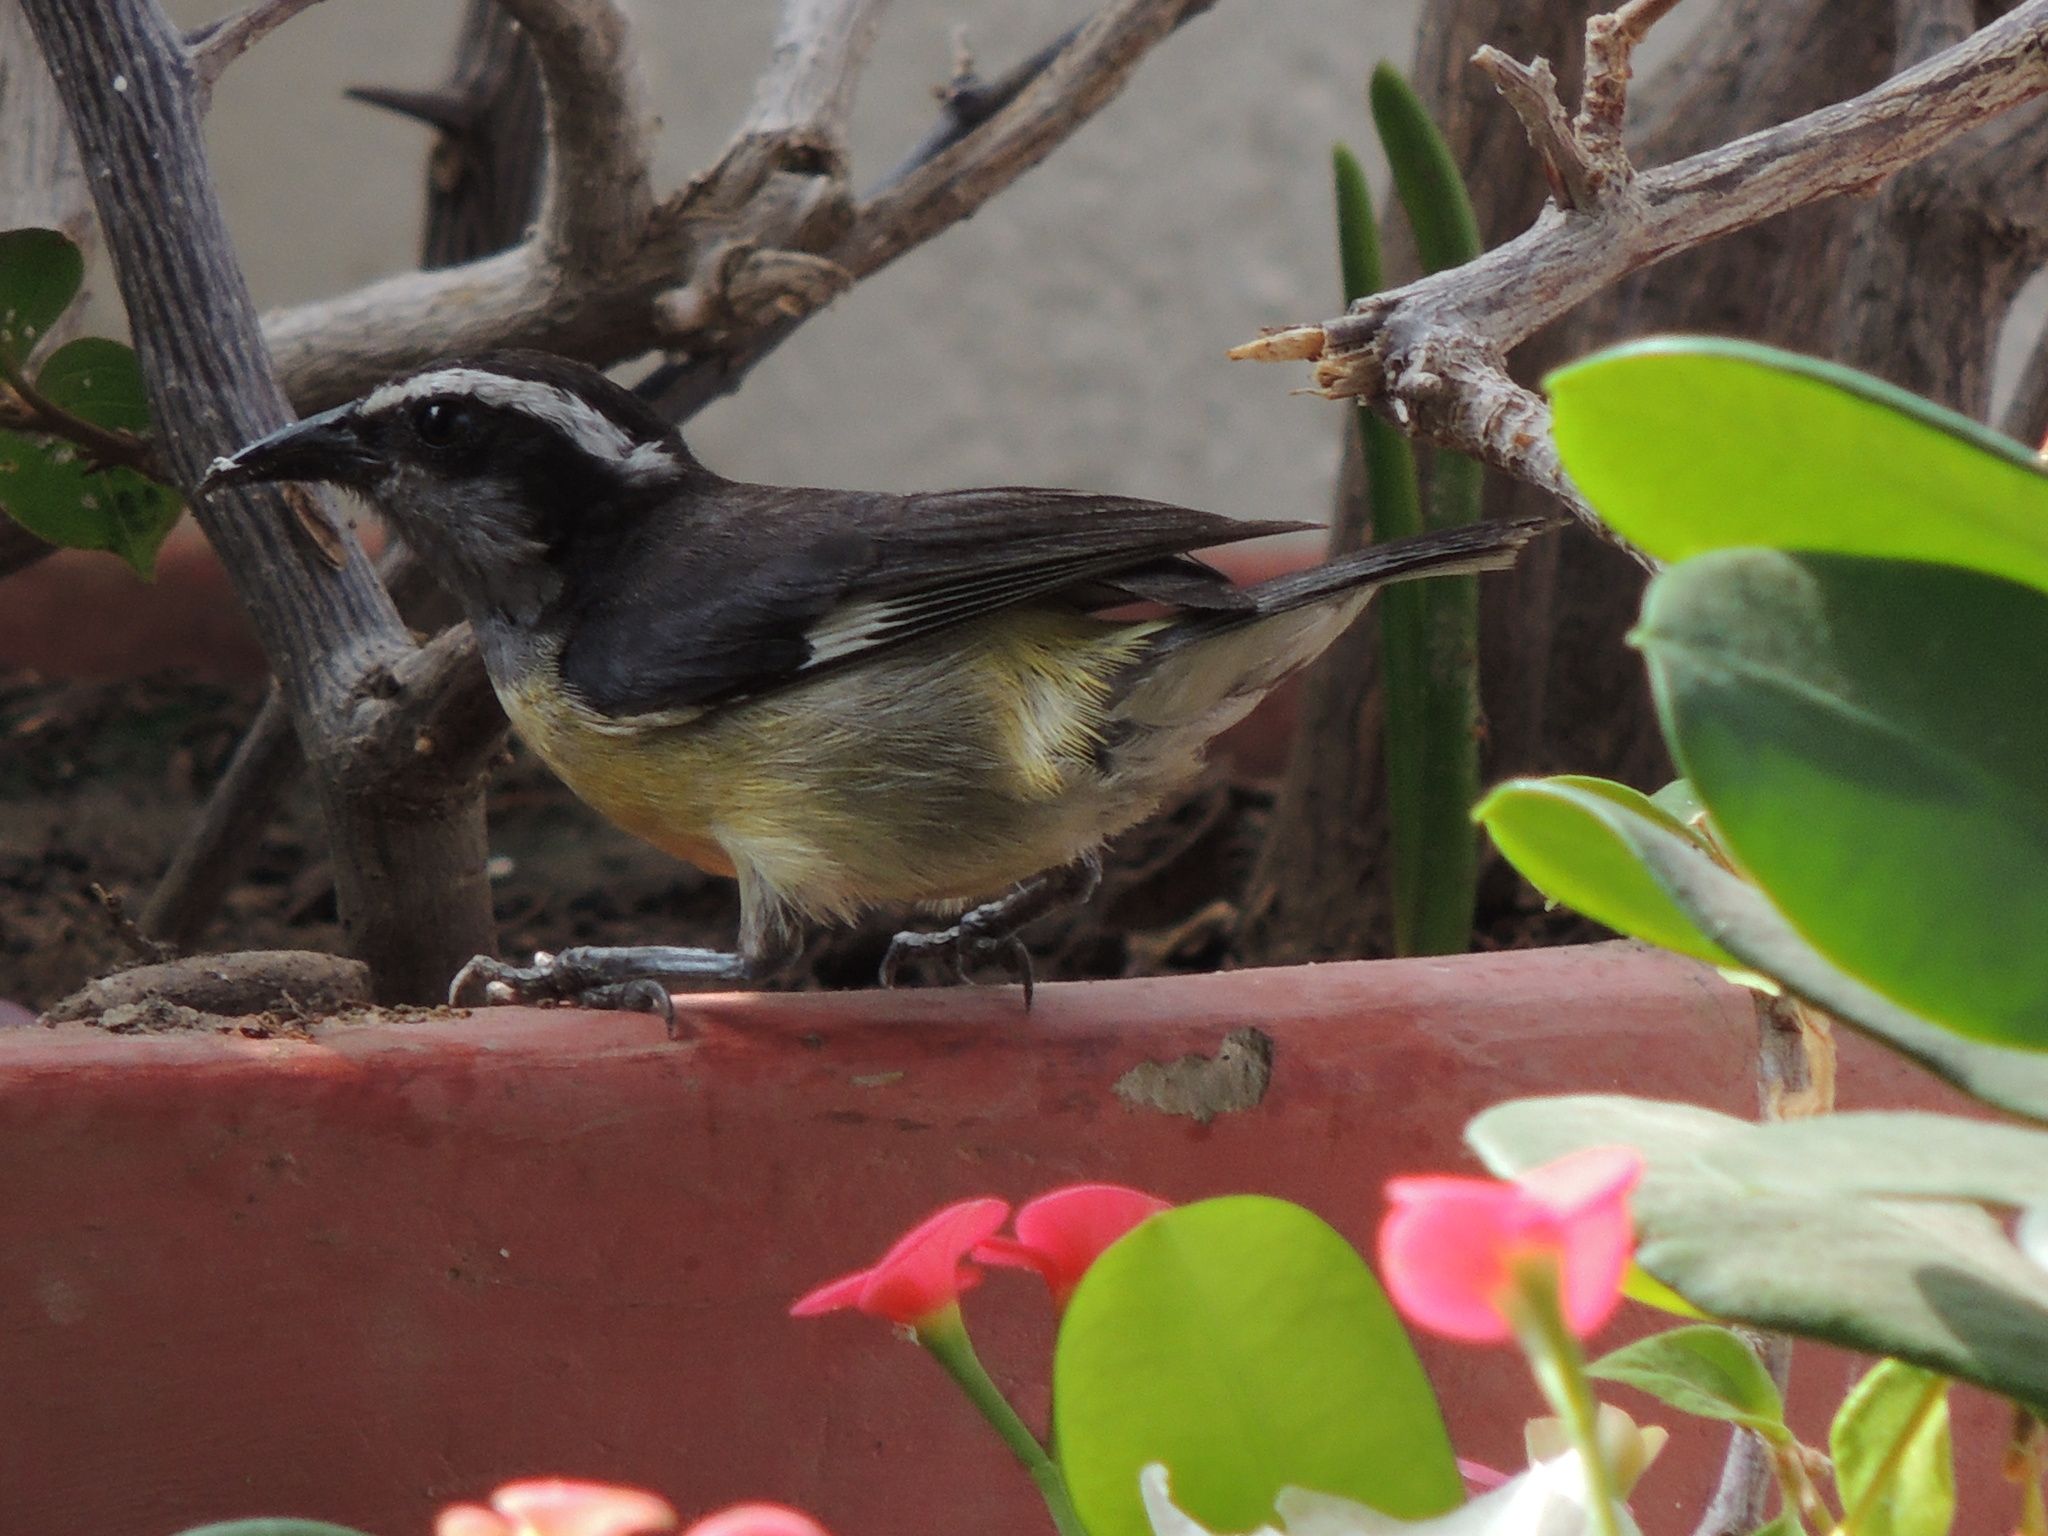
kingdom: Animalia
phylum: Chordata
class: Aves
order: Passeriformes
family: Thraupidae
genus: Coereba
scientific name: Coereba flaveola
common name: Bananaquit
